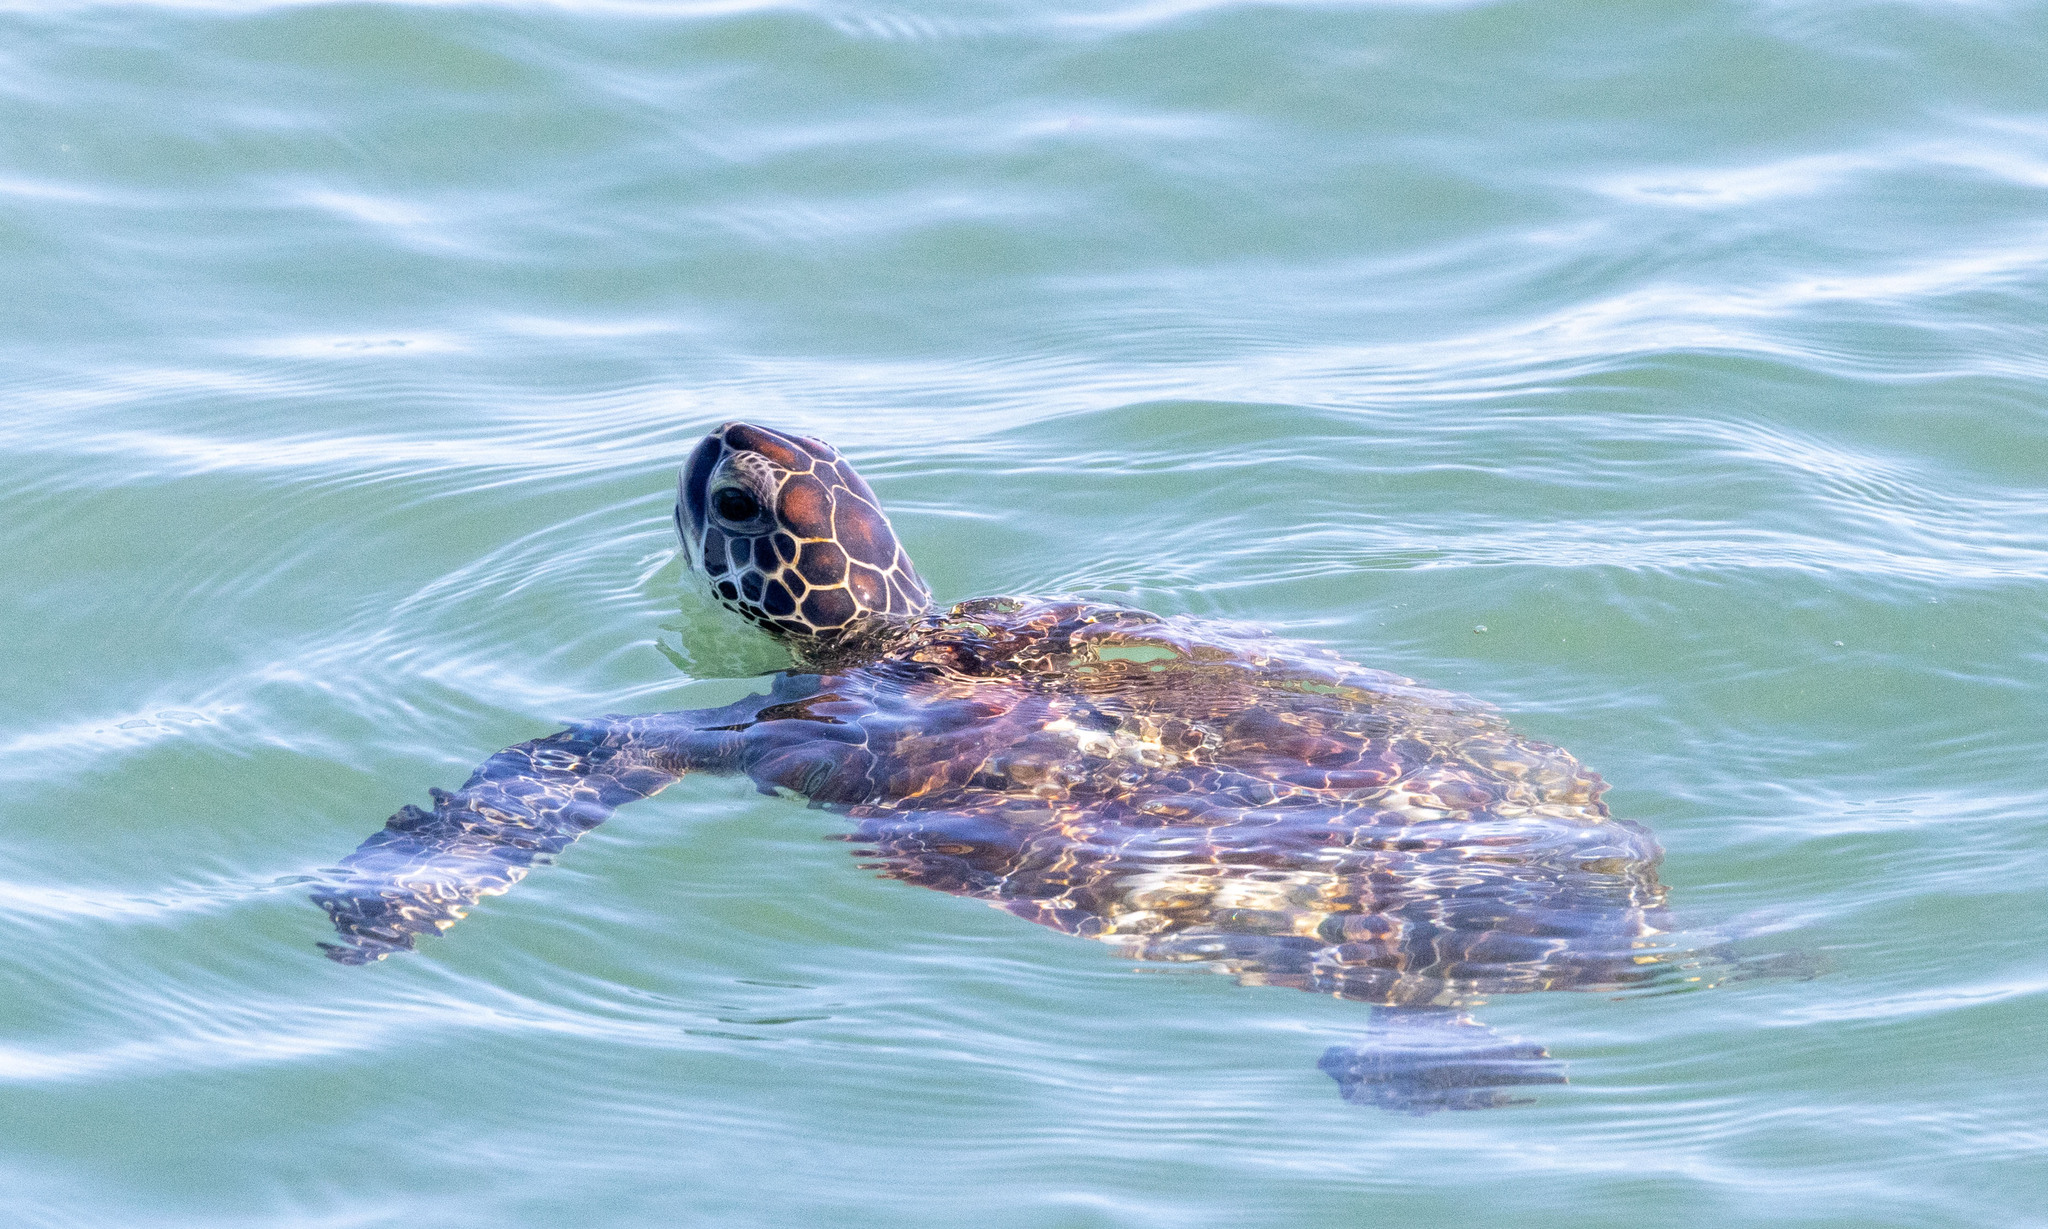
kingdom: Animalia
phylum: Chordata
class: Testudines
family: Cheloniidae
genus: Chelonia
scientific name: Chelonia mydas
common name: Green turtle
